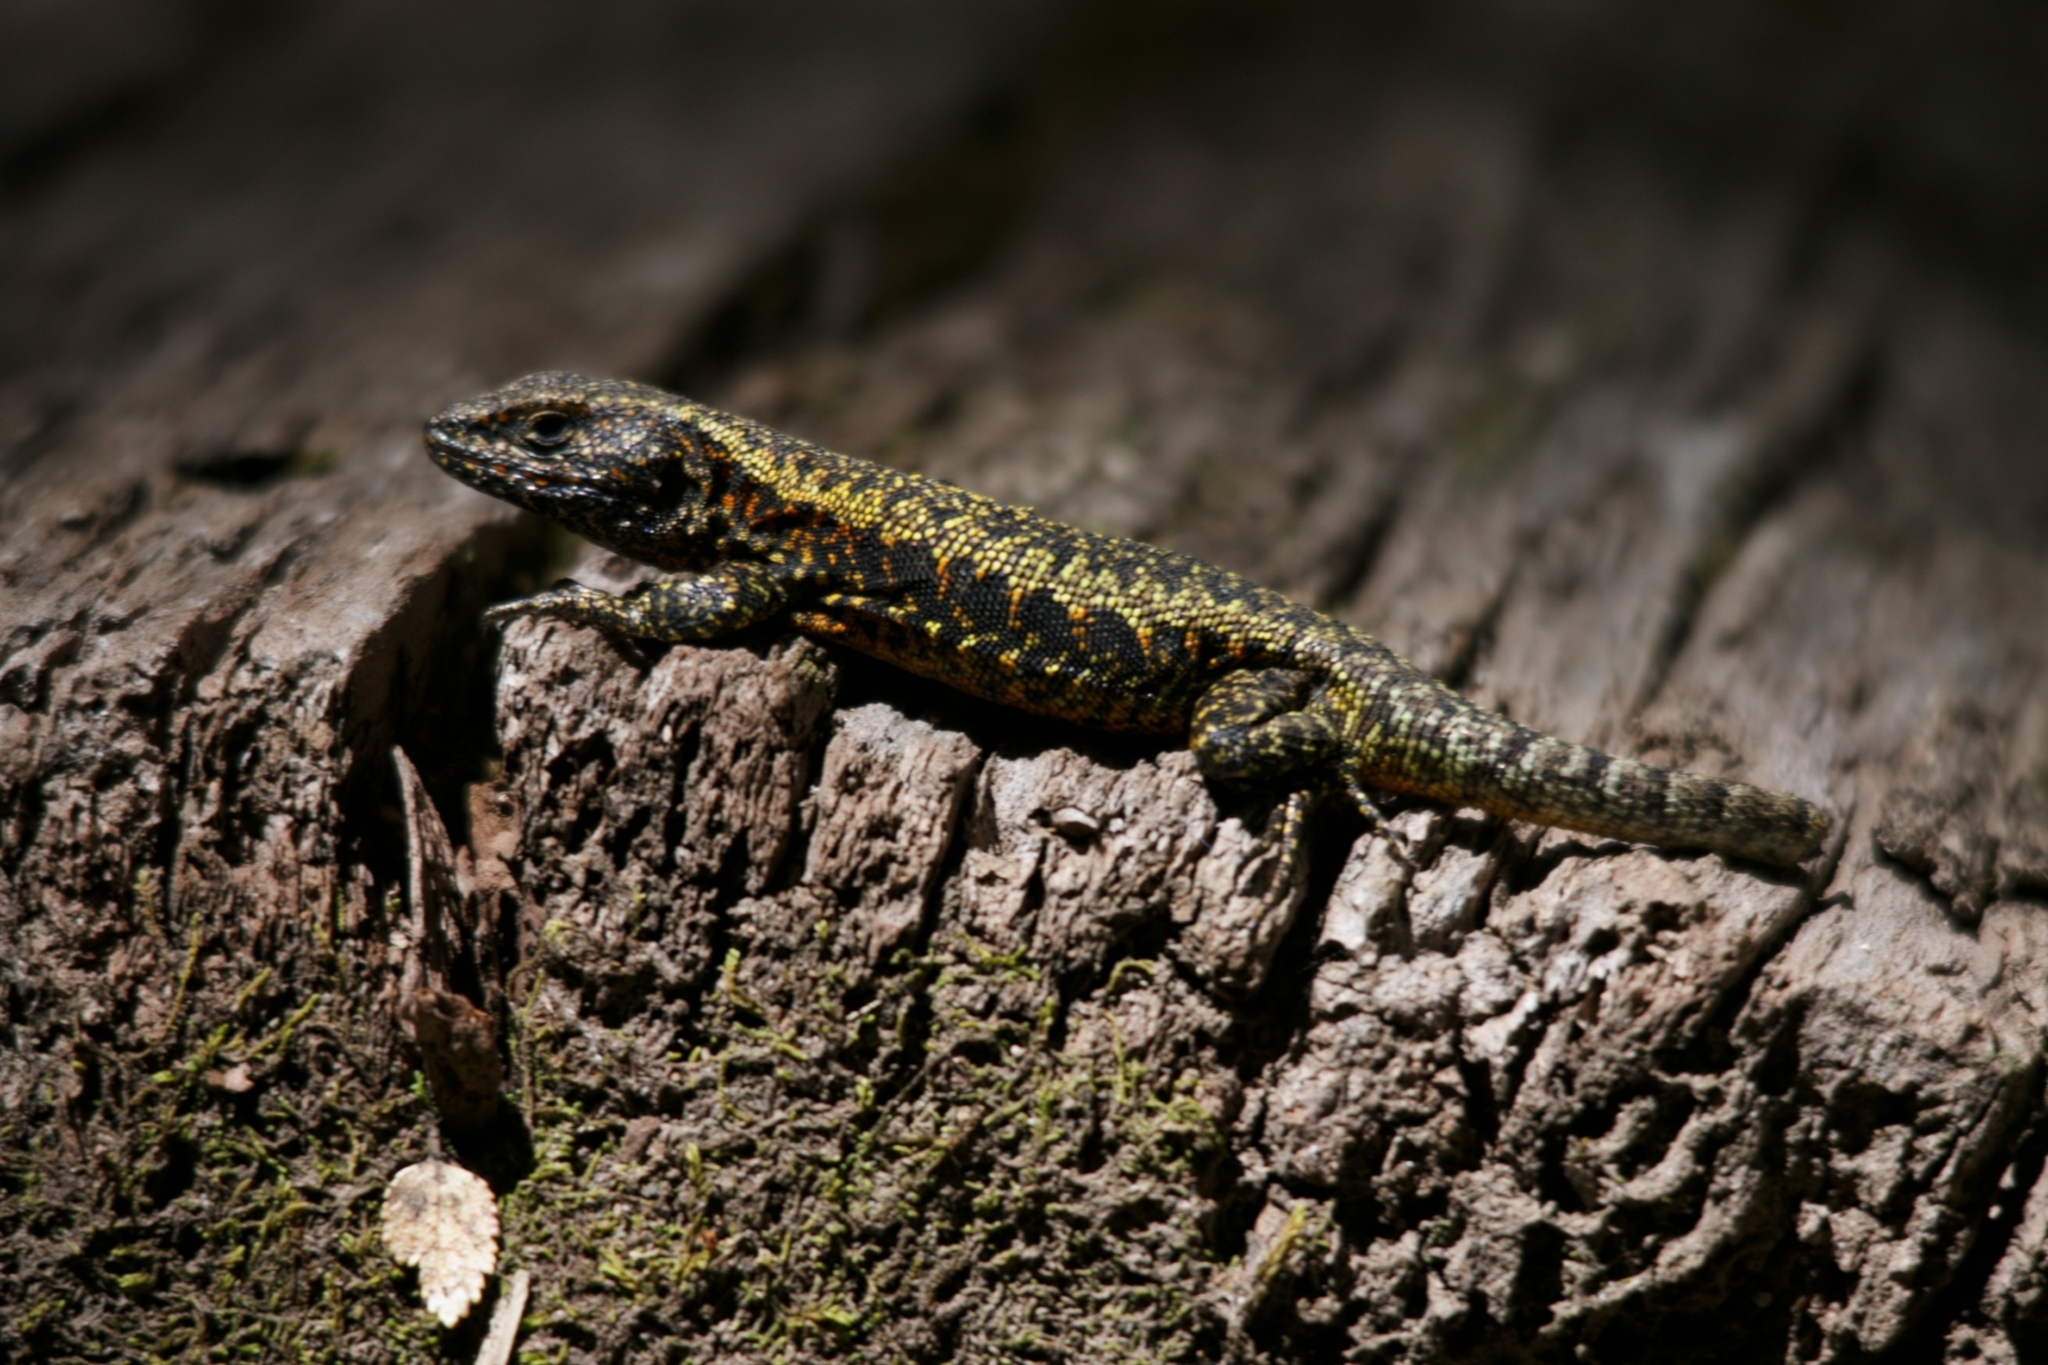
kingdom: Animalia
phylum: Chordata
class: Squamata
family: Liolaemidae
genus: Liolaemus
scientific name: Liolaemus pictus
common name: Painted tree iguana
